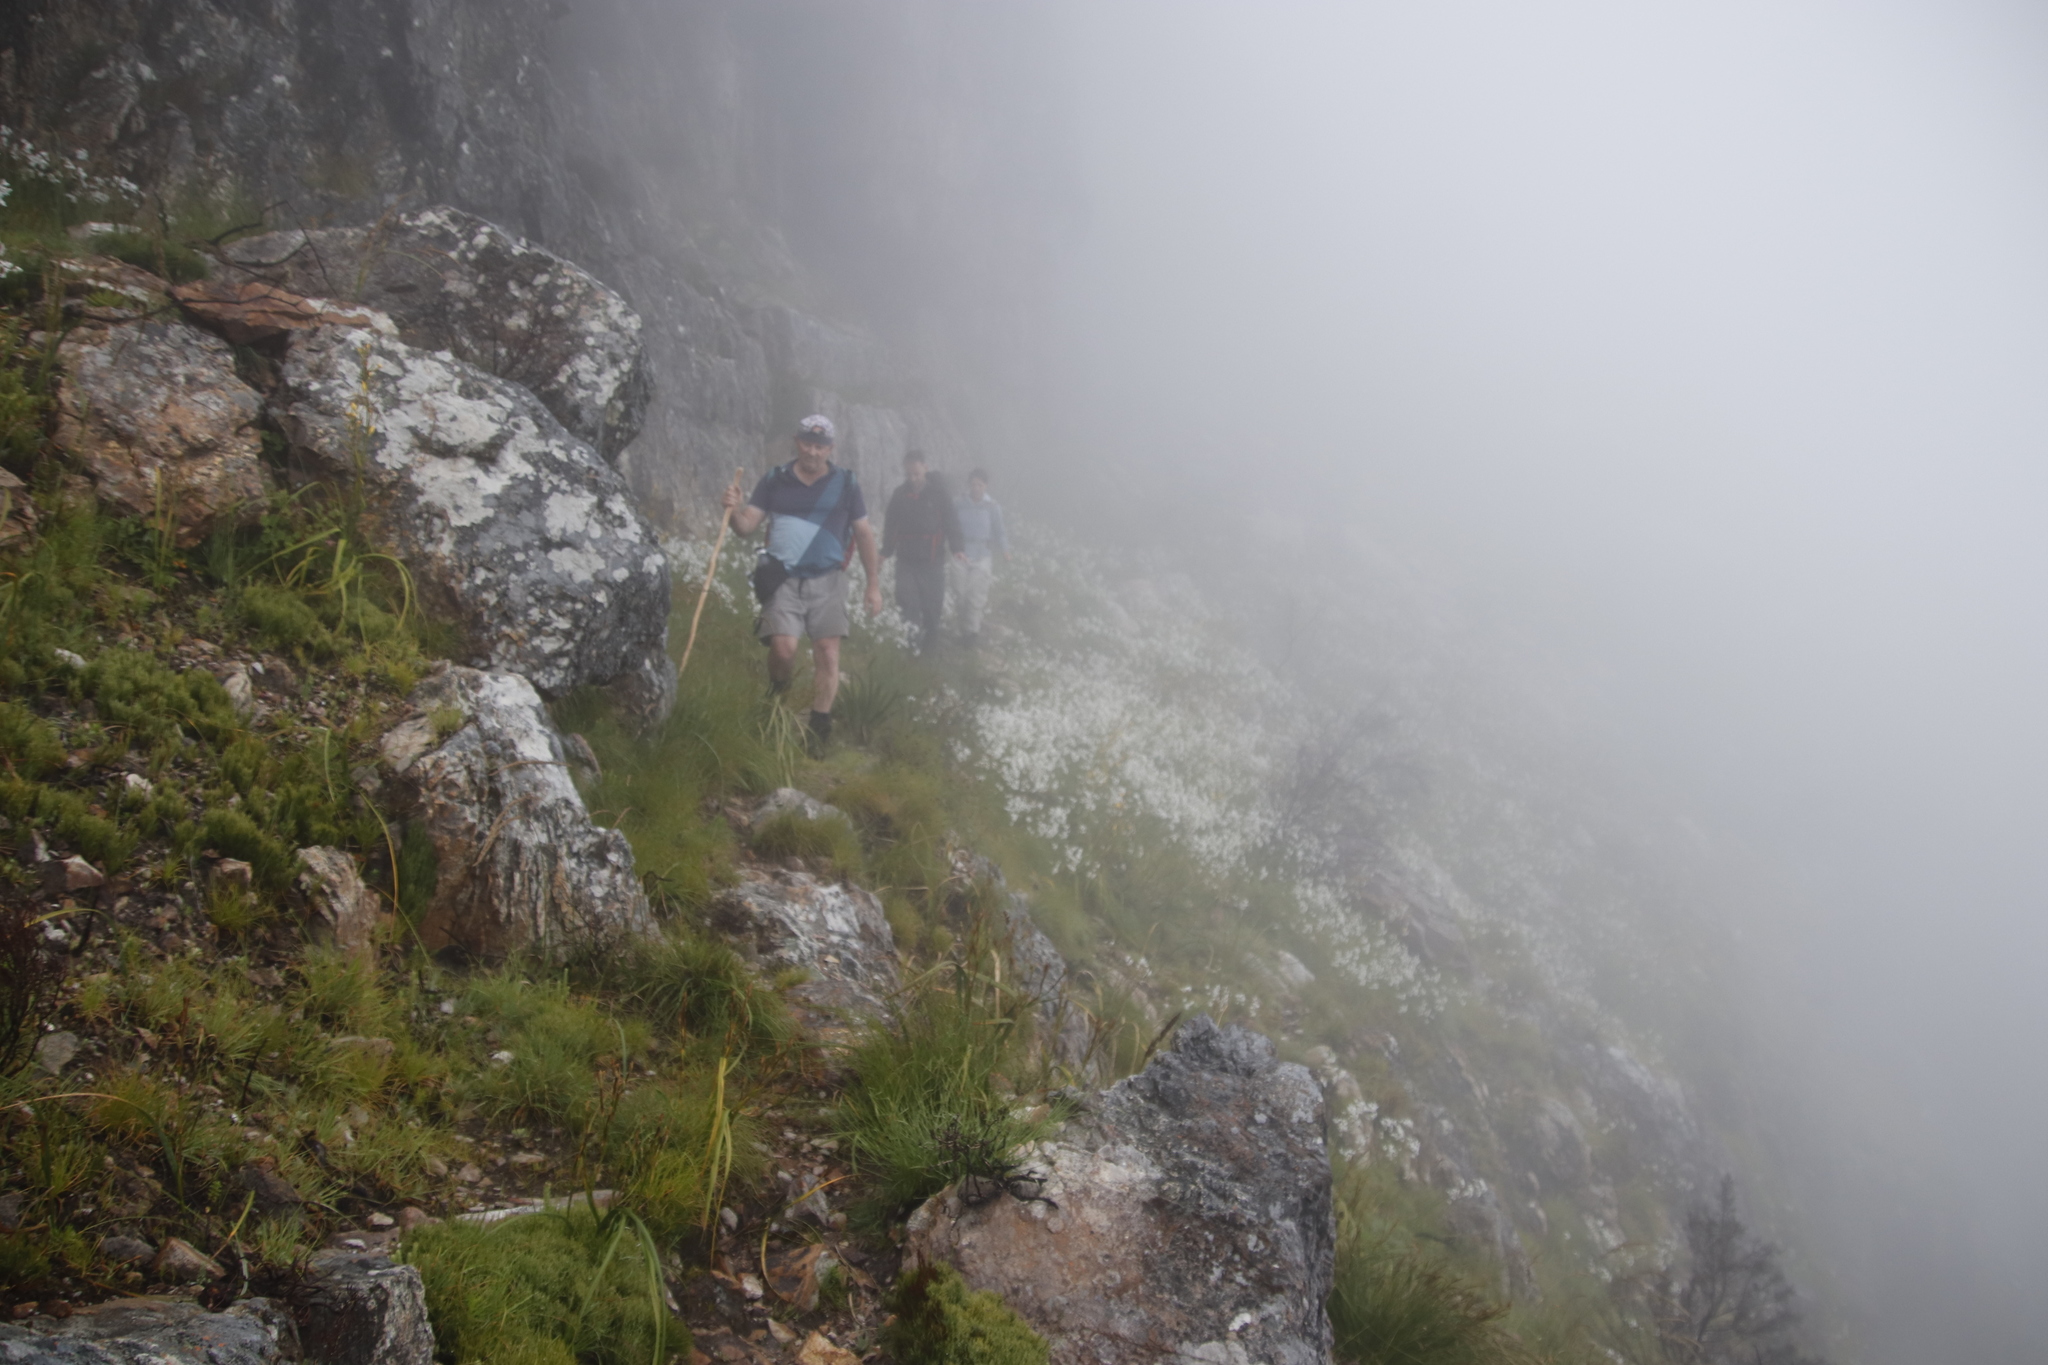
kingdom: Plantae
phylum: Tracheophyta
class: Liliopsida
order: Asparagales
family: Iridaceae
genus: Schizorhiza
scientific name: Schizorhiza neglecta
